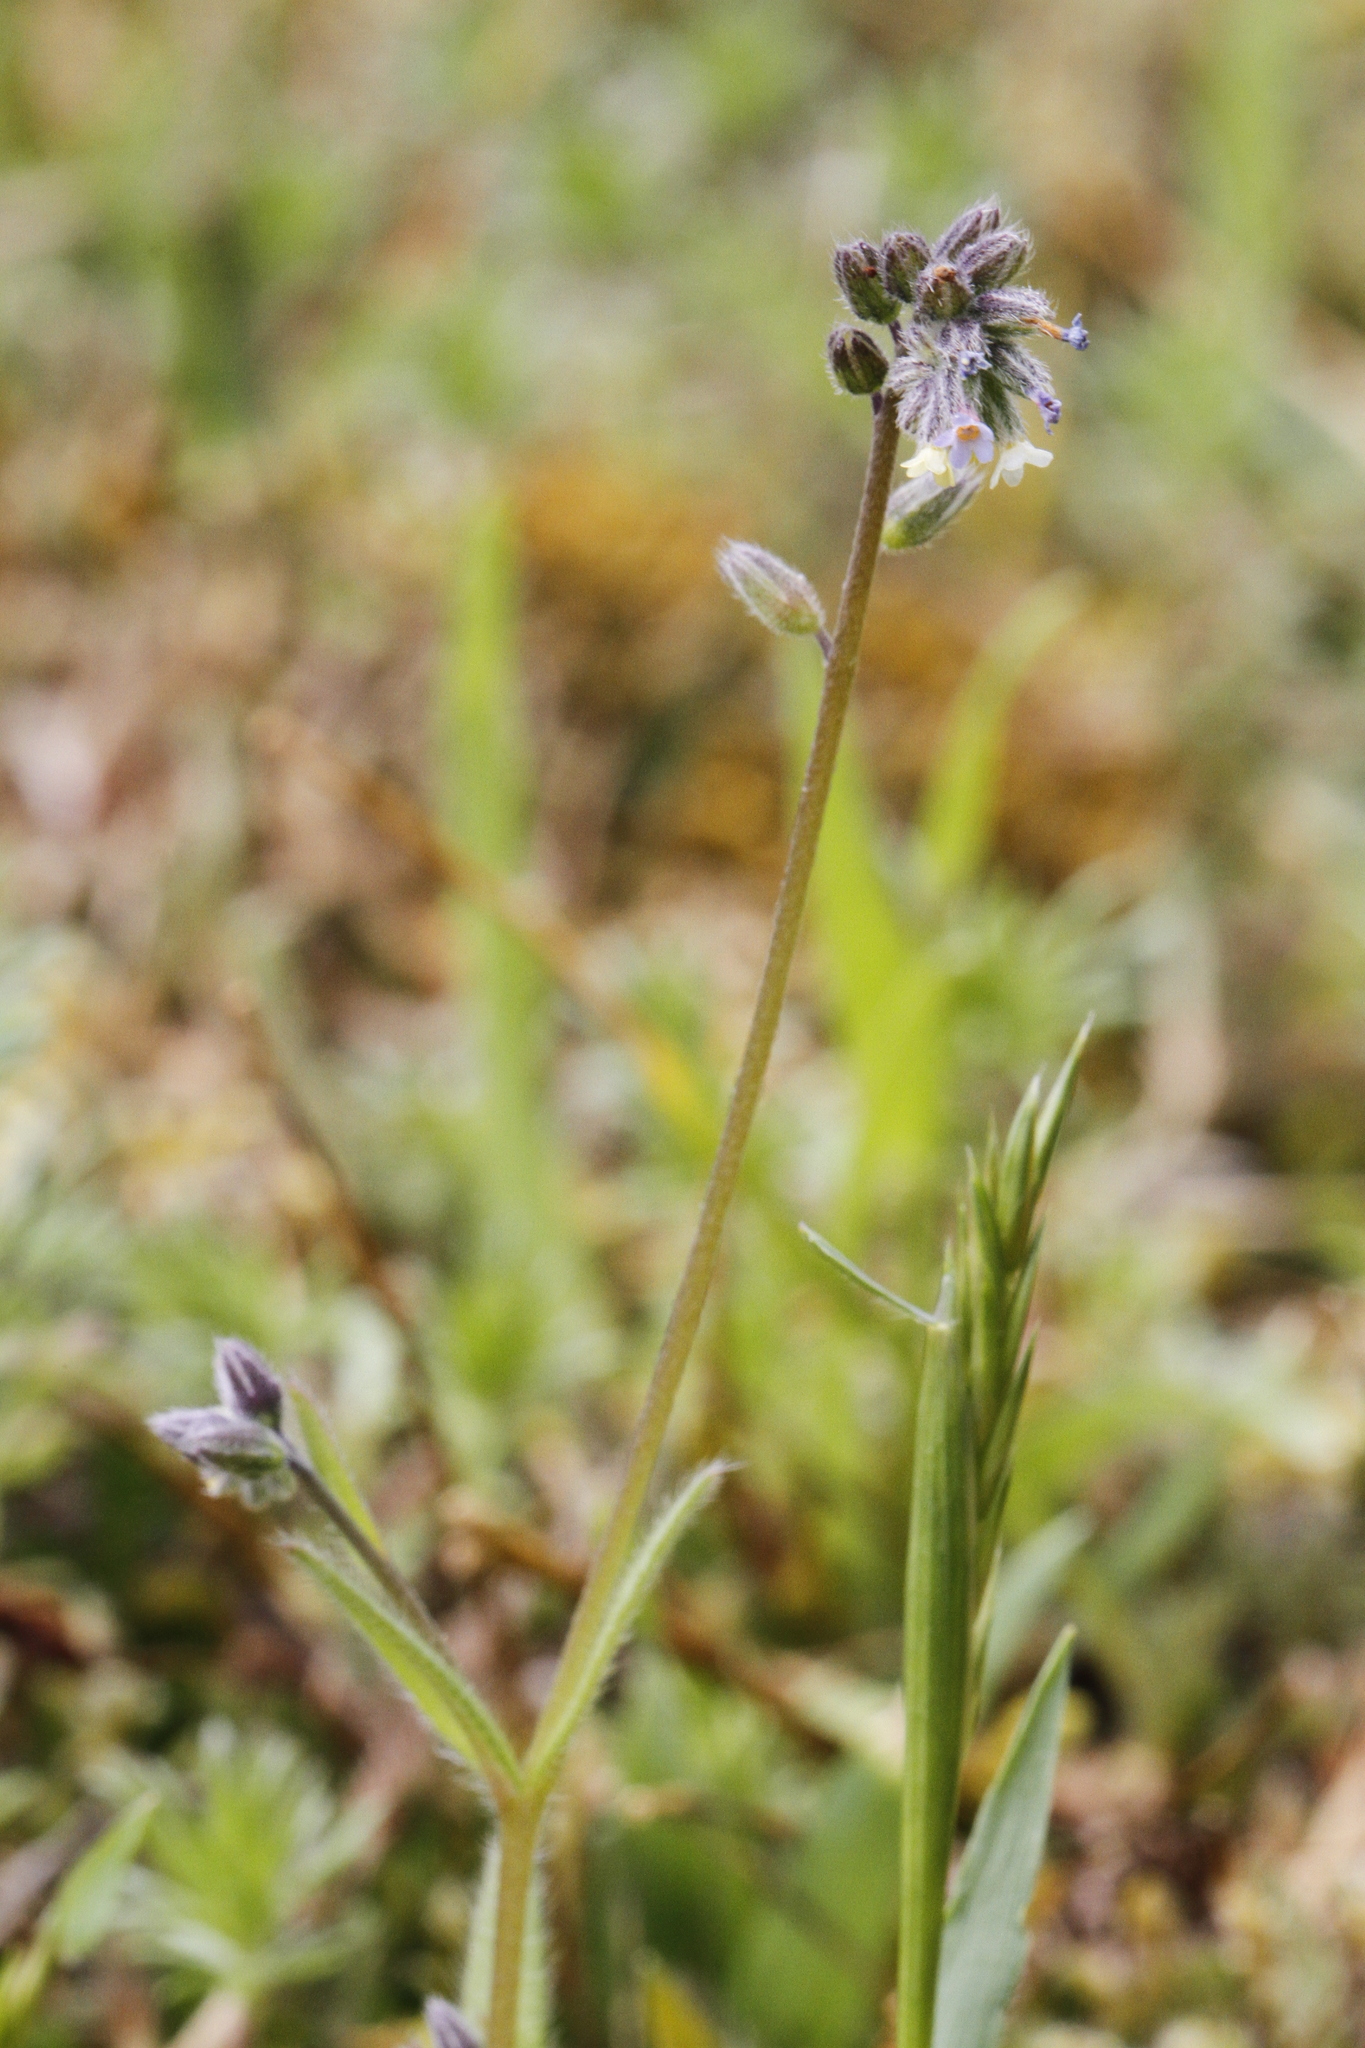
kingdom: Plantae
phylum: Tracheophyta
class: Magnoliopsida
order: Boraginales
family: Boraginaceae
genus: Myosotis
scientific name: Myosotis discolor
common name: Changing forget-me-not
